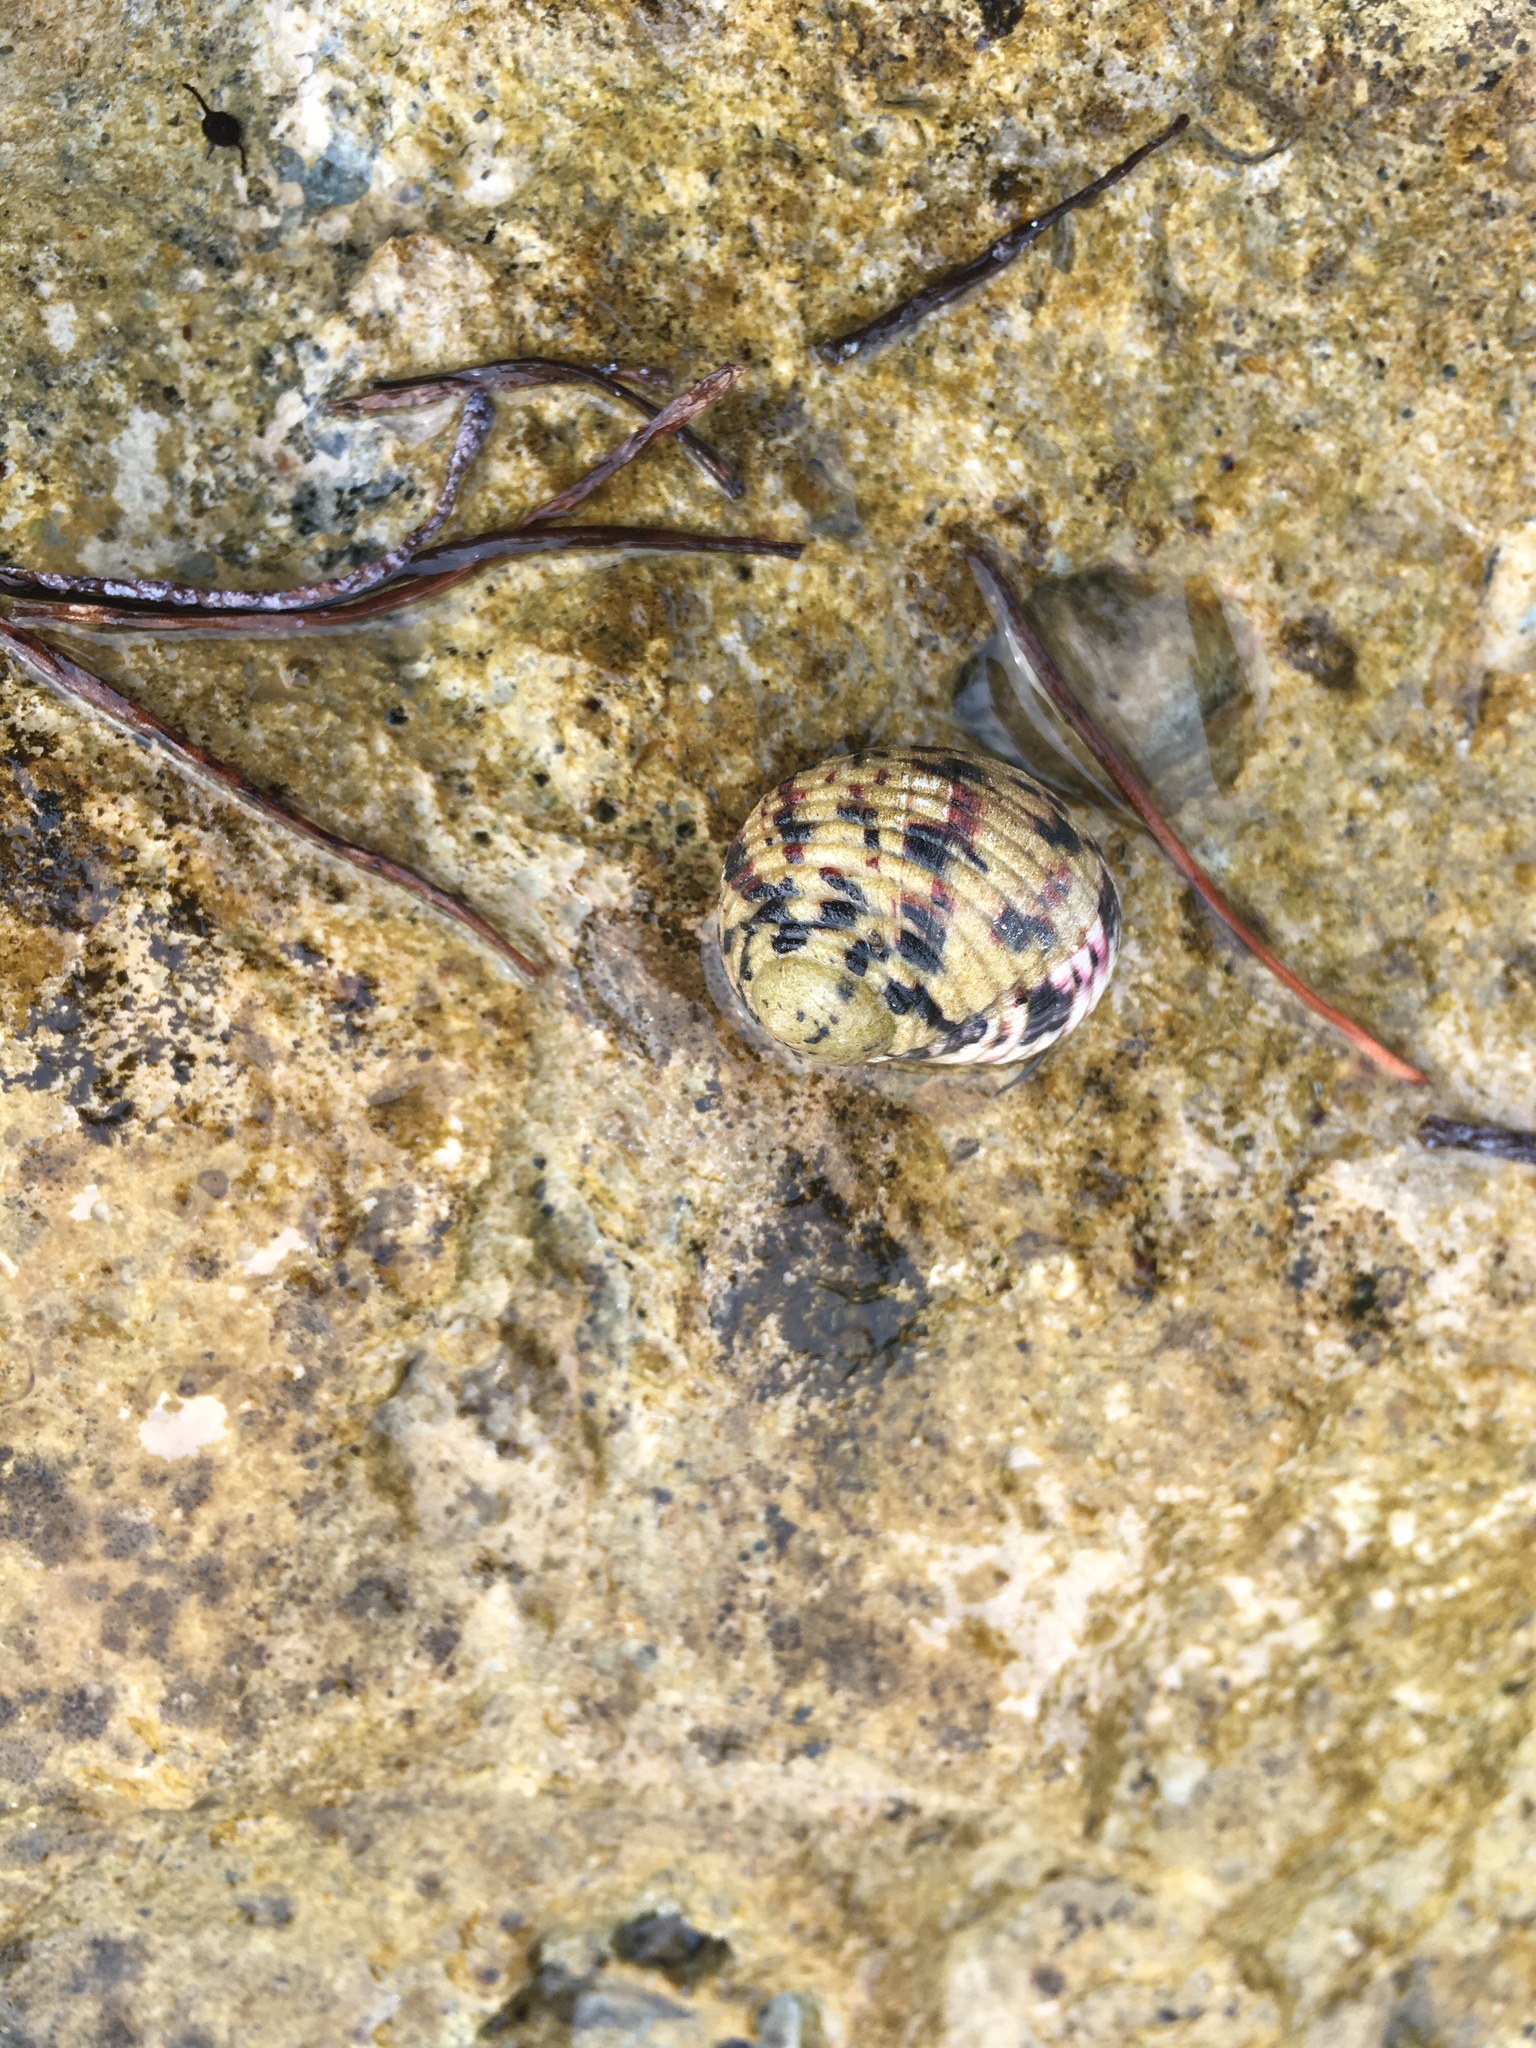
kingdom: Animalia
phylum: Mollusca
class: Gastropoda
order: Cycloneritida
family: Neritidae
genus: Nerita
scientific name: Nerita versicolor
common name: Four-tooth nerite
